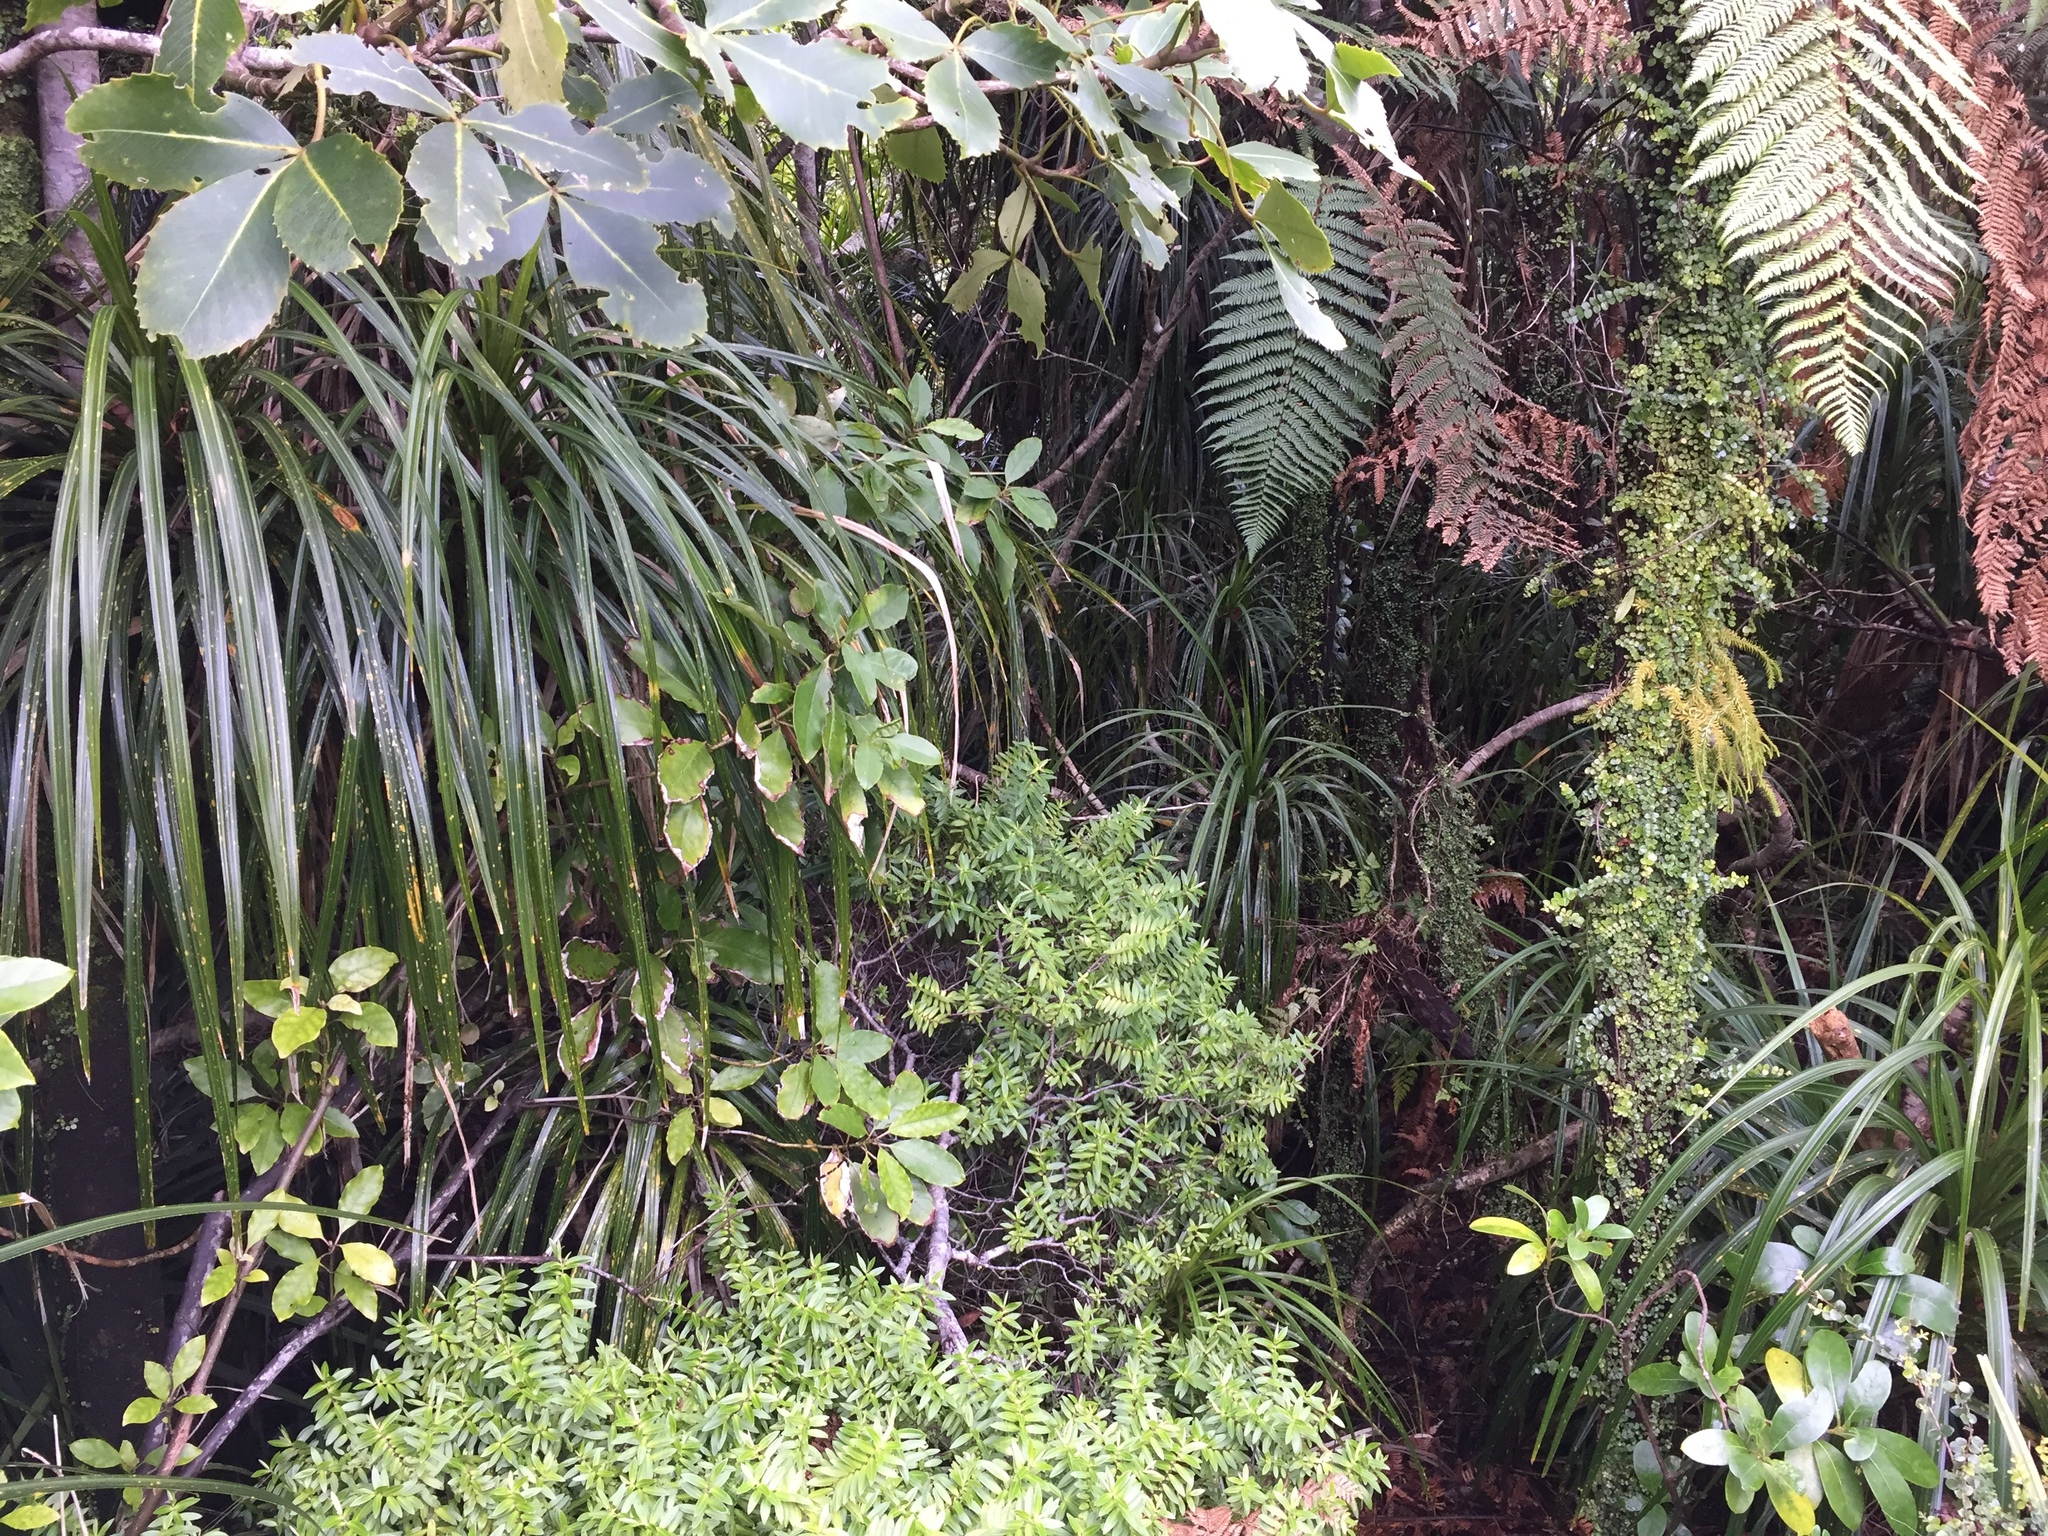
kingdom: Plantae
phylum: Tracheophyta
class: Magnoliopsida
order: Myrtales
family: Myrtaceae
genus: Metrosideros
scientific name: Metrosideros perforata
